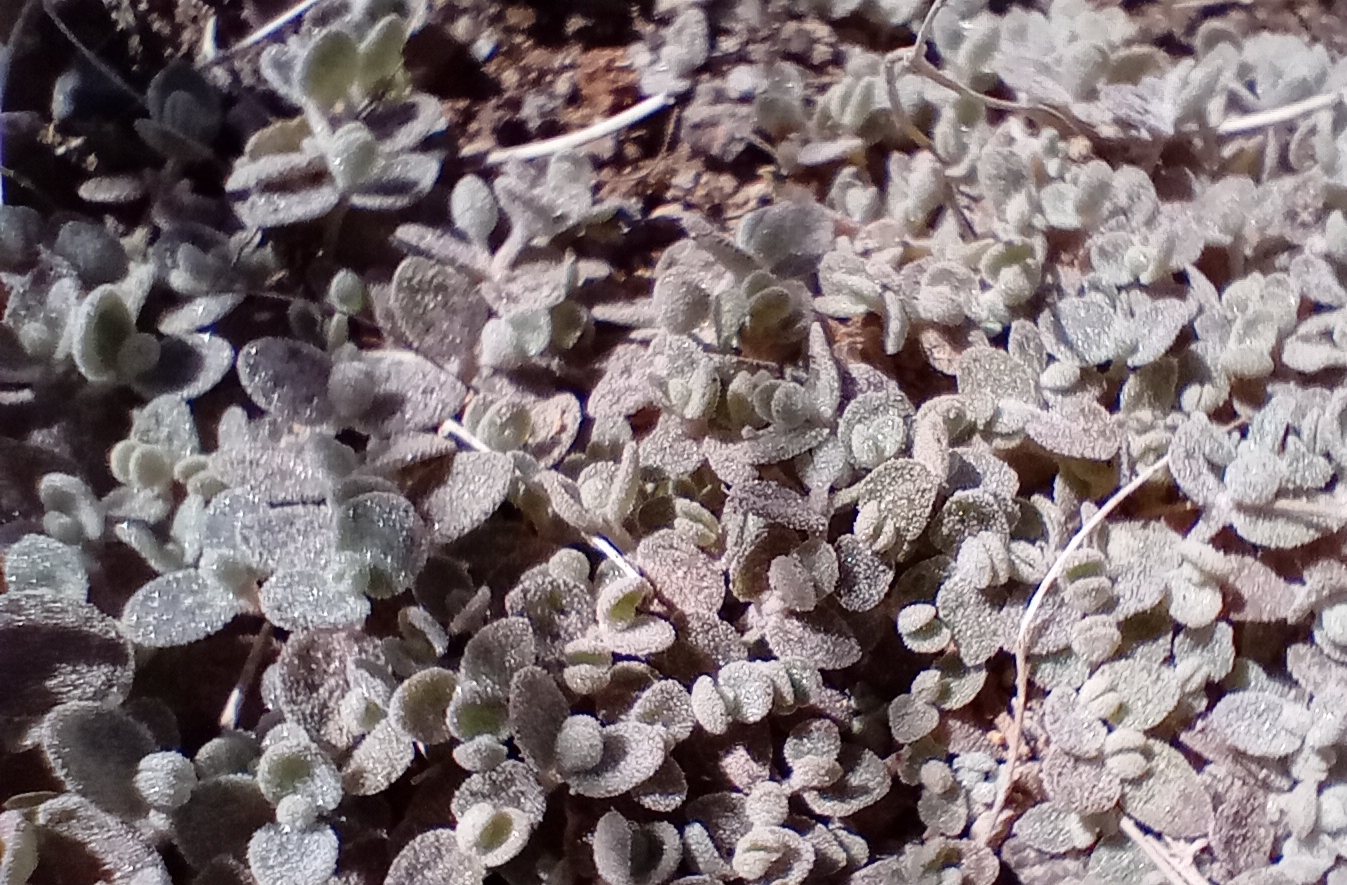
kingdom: Plantae
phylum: Tracheophyta
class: Magnoliopsida
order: Caryophyllales
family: Amaranthaceae
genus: Atriplex
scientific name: Atriplex buchananii
